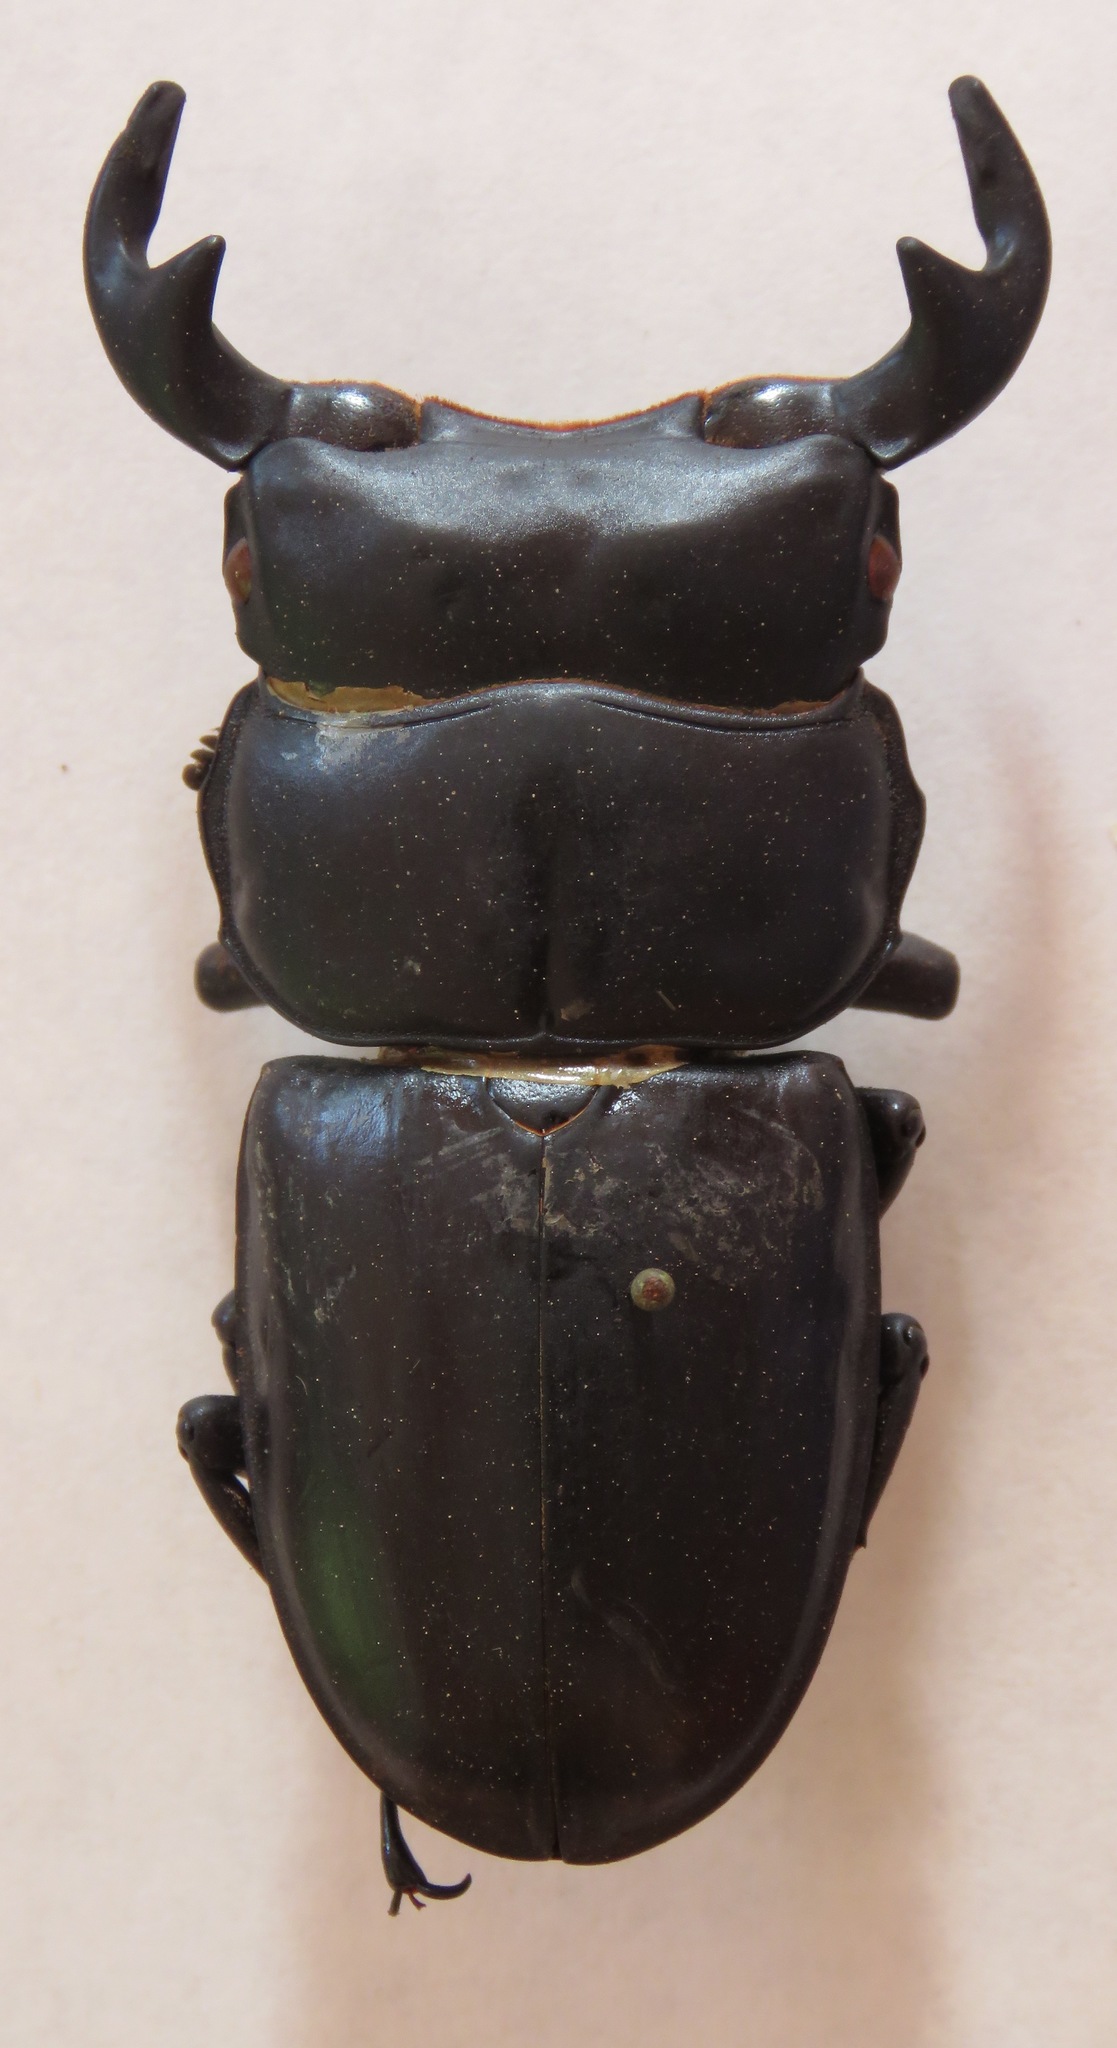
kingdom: Animalia
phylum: Arthropoda
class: Insecta
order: Coleoptera
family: Lucanidae
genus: Dorcus
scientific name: Dorcus antaeus
